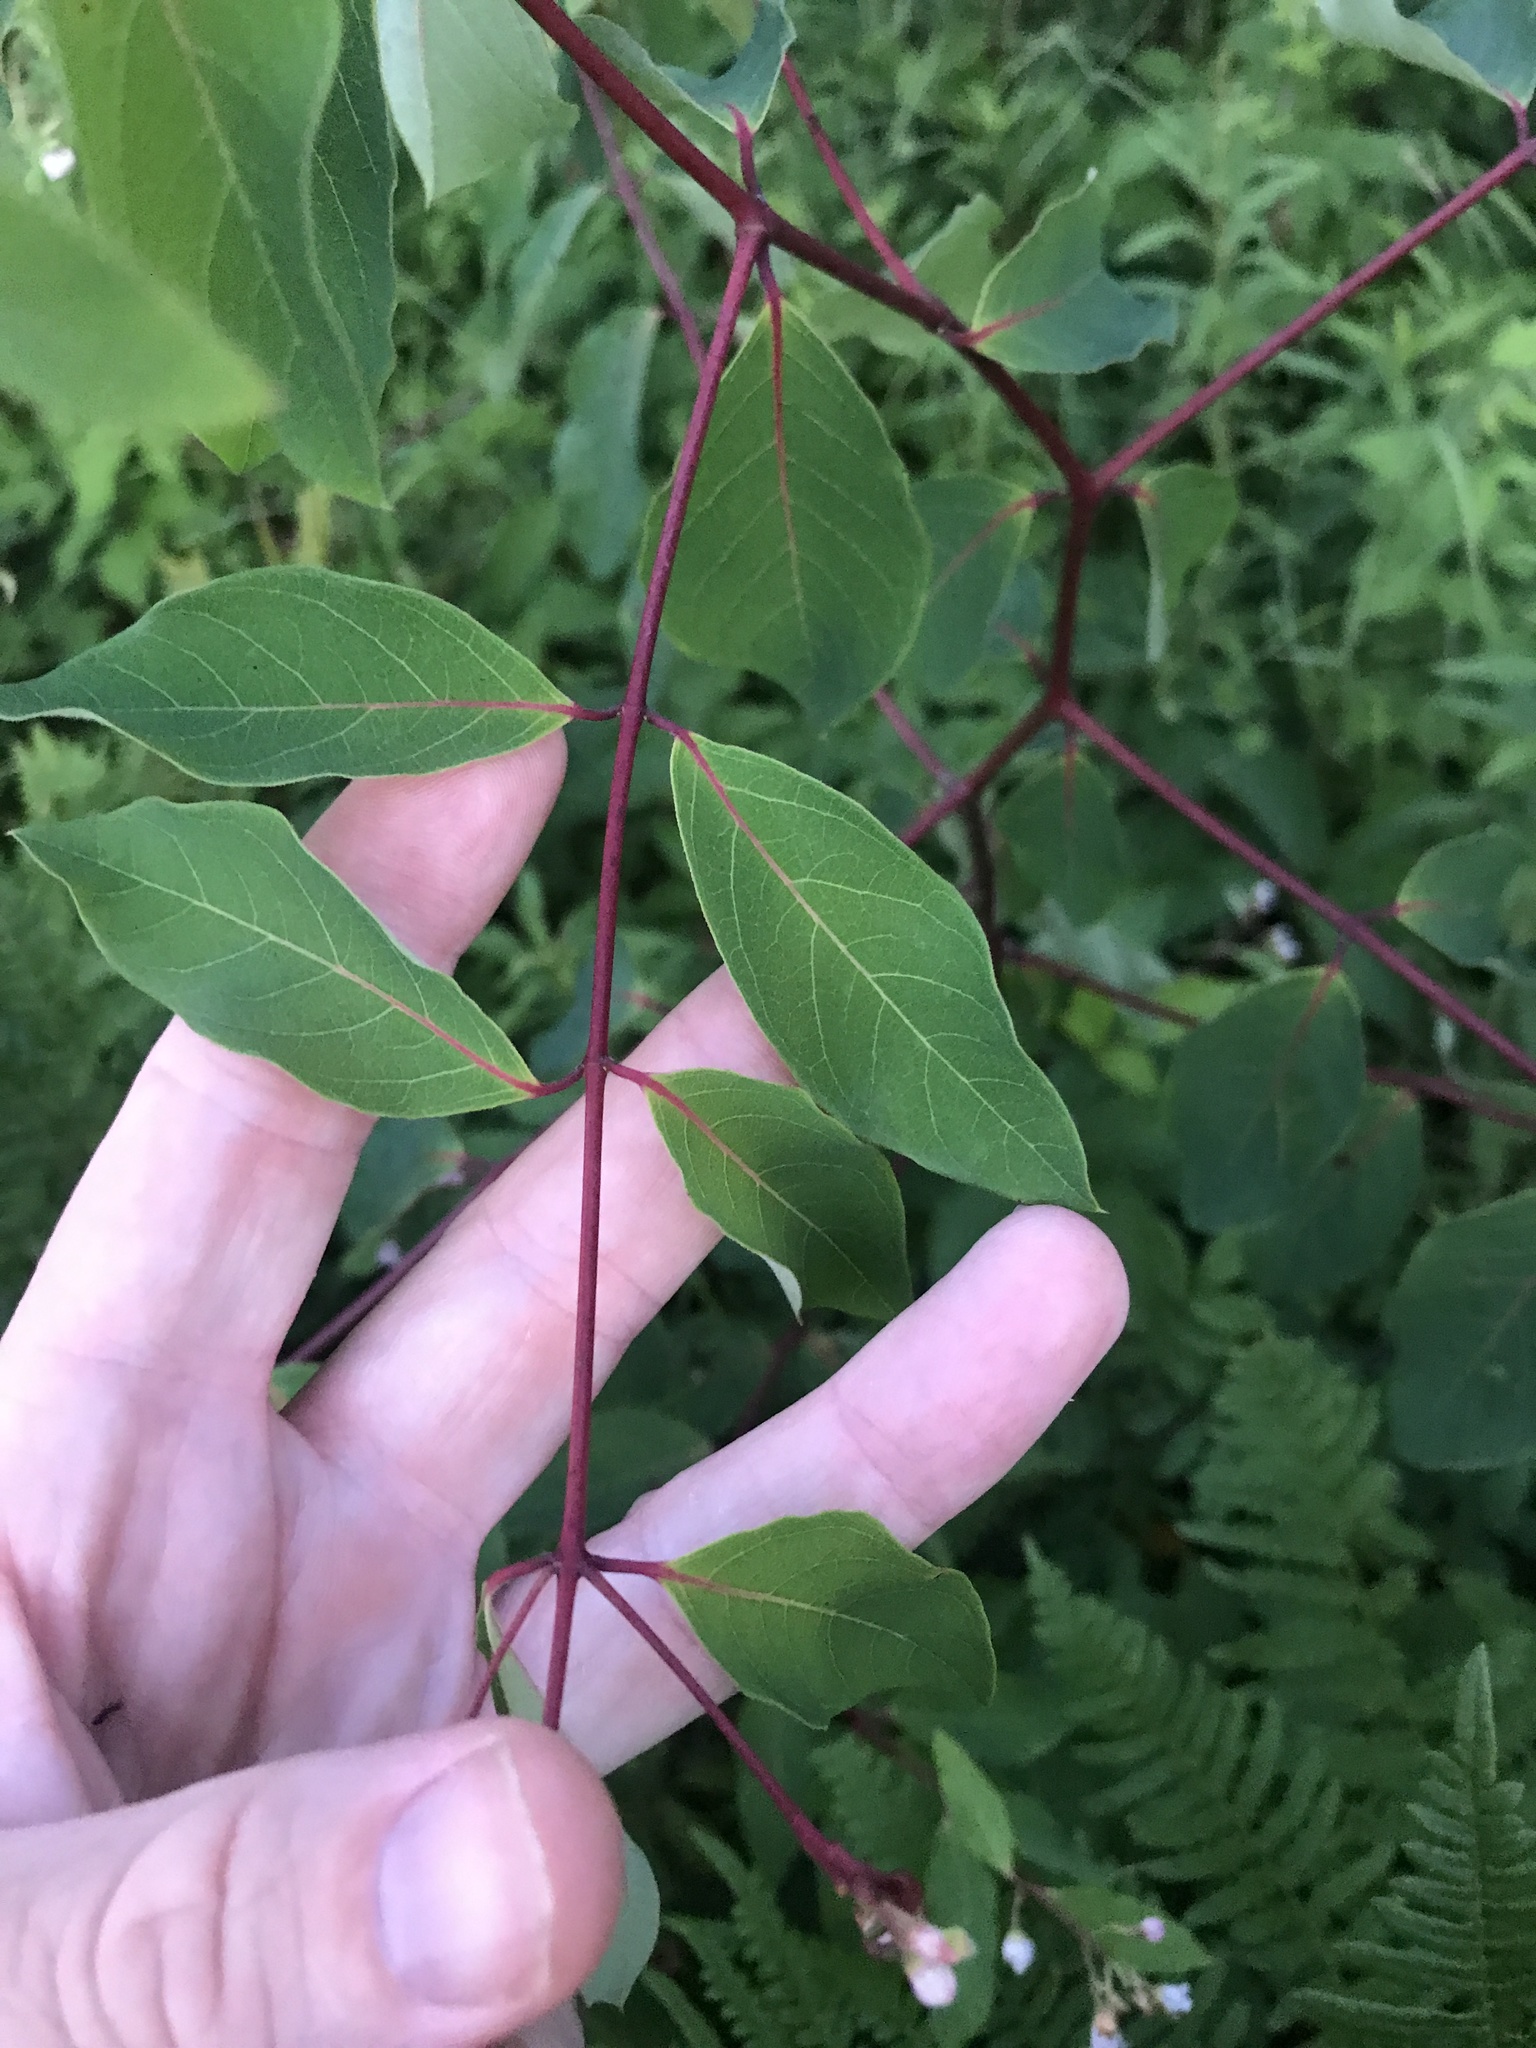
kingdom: Plantae
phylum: Tracheophyta
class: Magnoliopsida
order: Gentianales
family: Apocynaceae
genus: Apocynum
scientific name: Apocynum androsaemifolium
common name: Spreading dogbane
